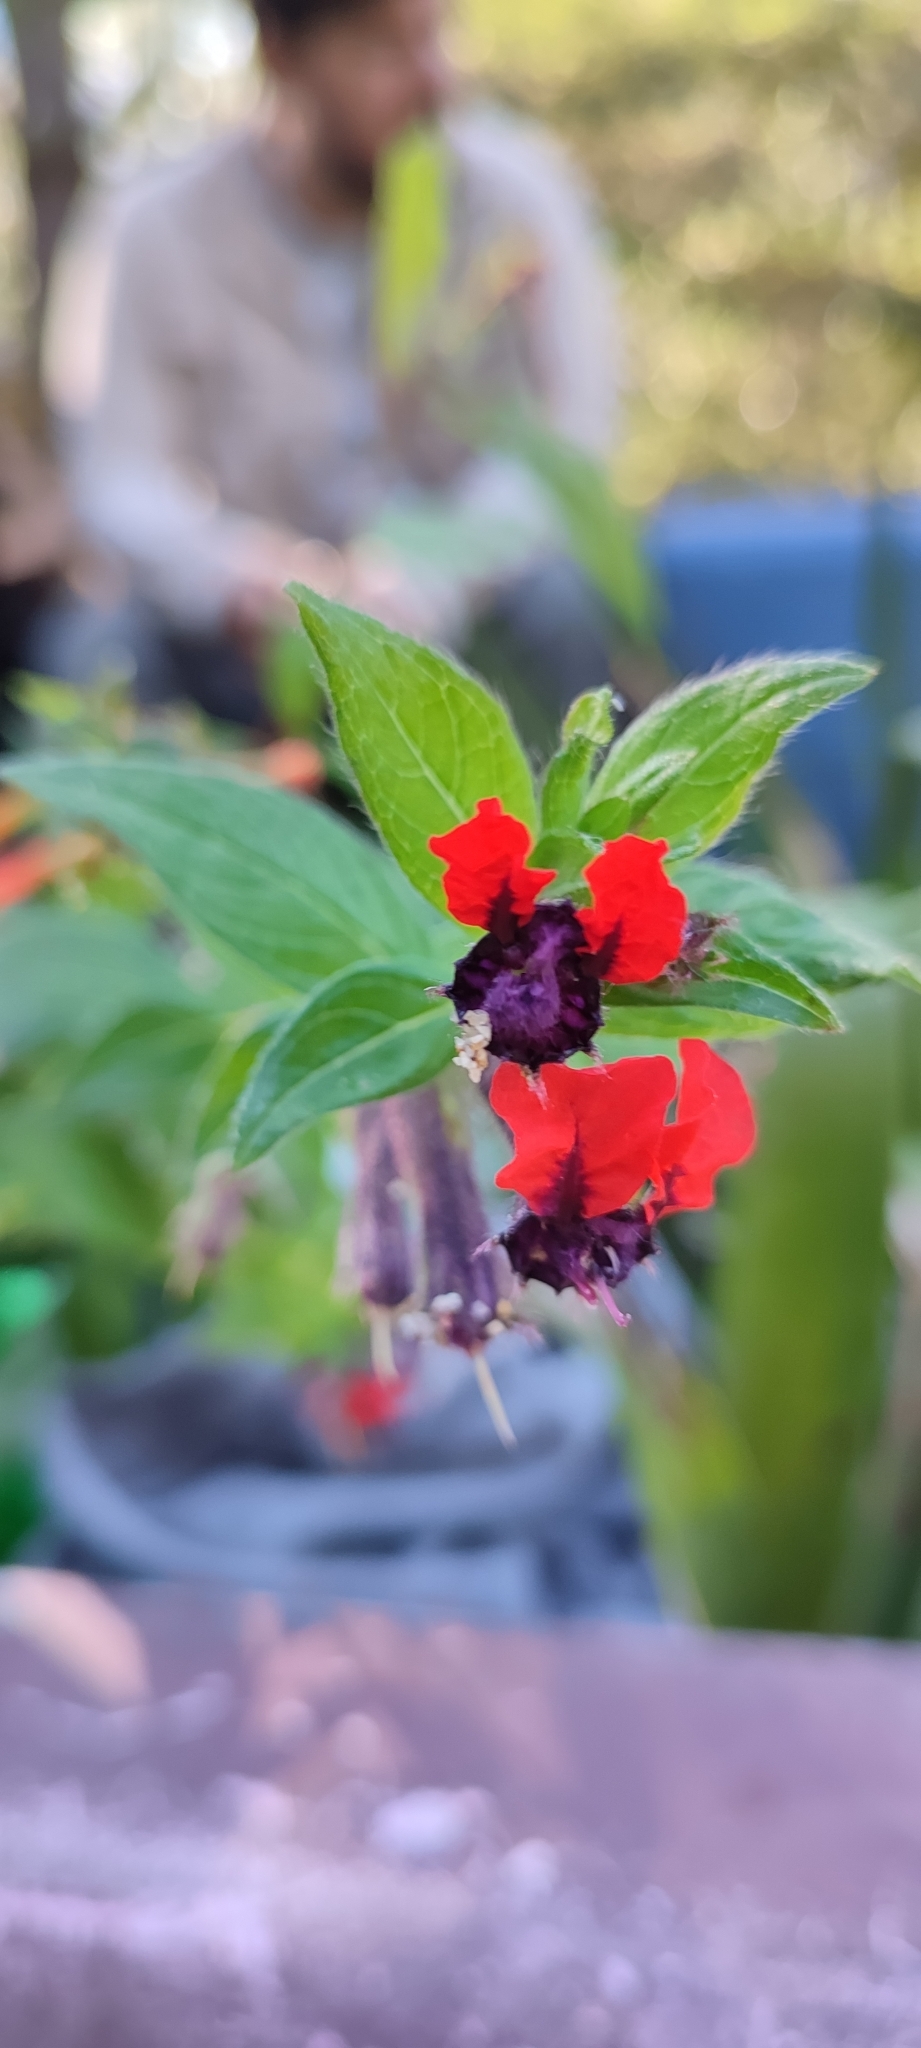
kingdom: Plantae
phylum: Tracheophyta
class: Magnoliopsida
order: Myrtales
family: Lythraceae
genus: Cuphea
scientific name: Cuphea llavea
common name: Tiny-mice
